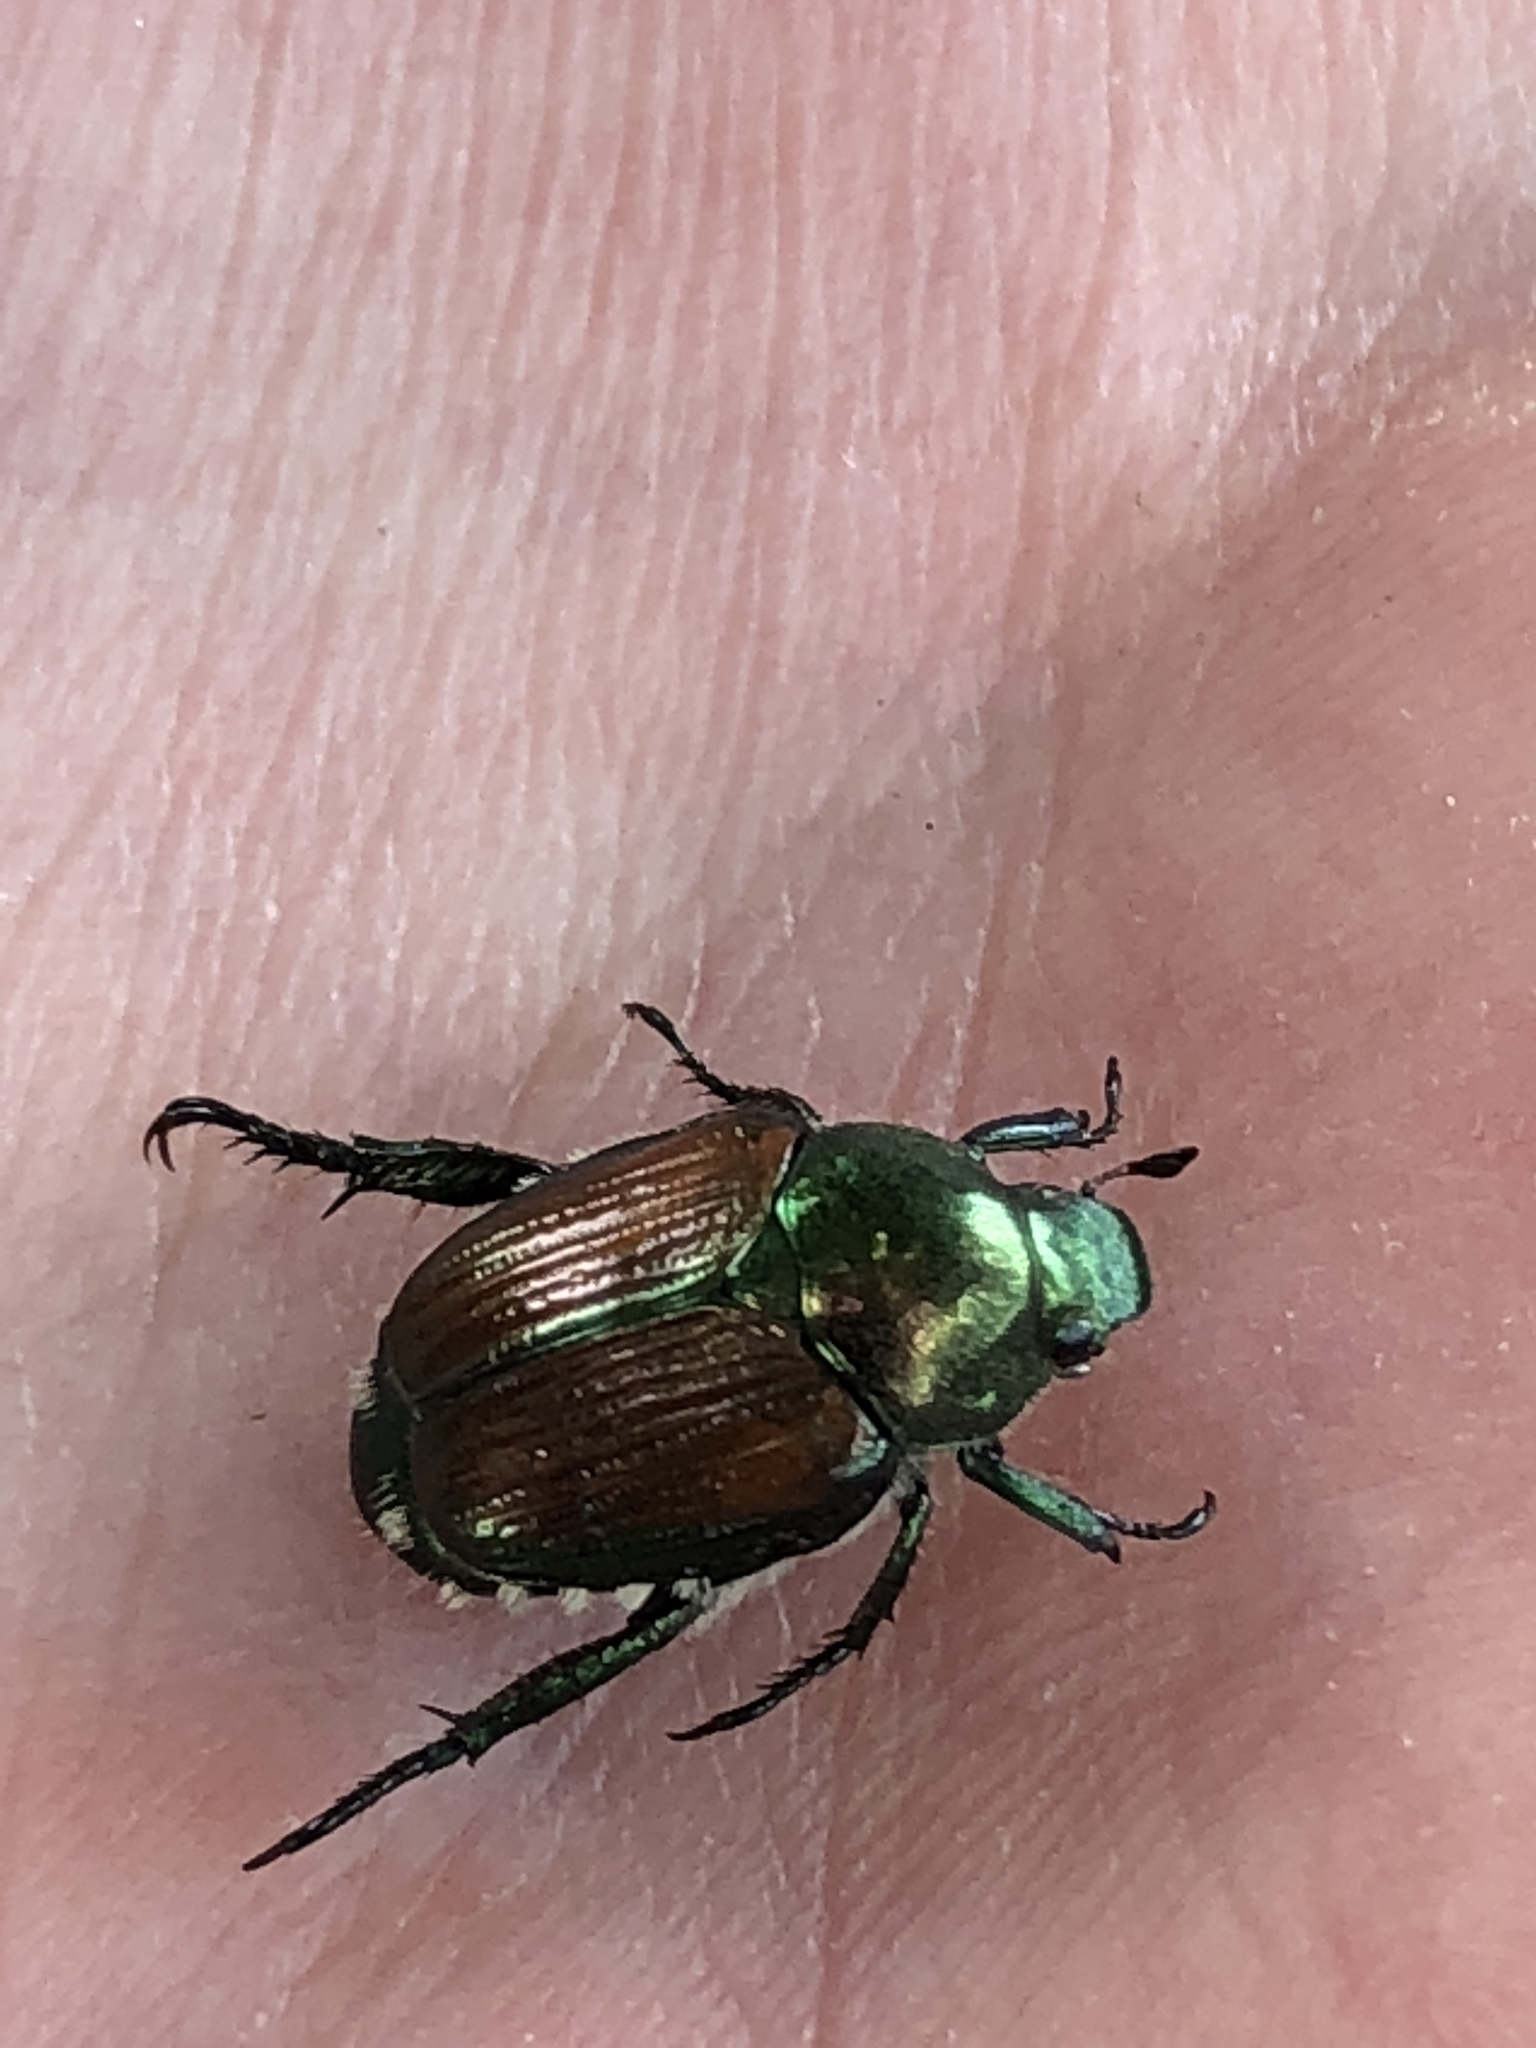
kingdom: Animalia
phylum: Arthropoda
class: Insecta
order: Coleoptera
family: Scarabaeidae
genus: Popillia
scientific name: Popillia japonica
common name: Japanese beetle
